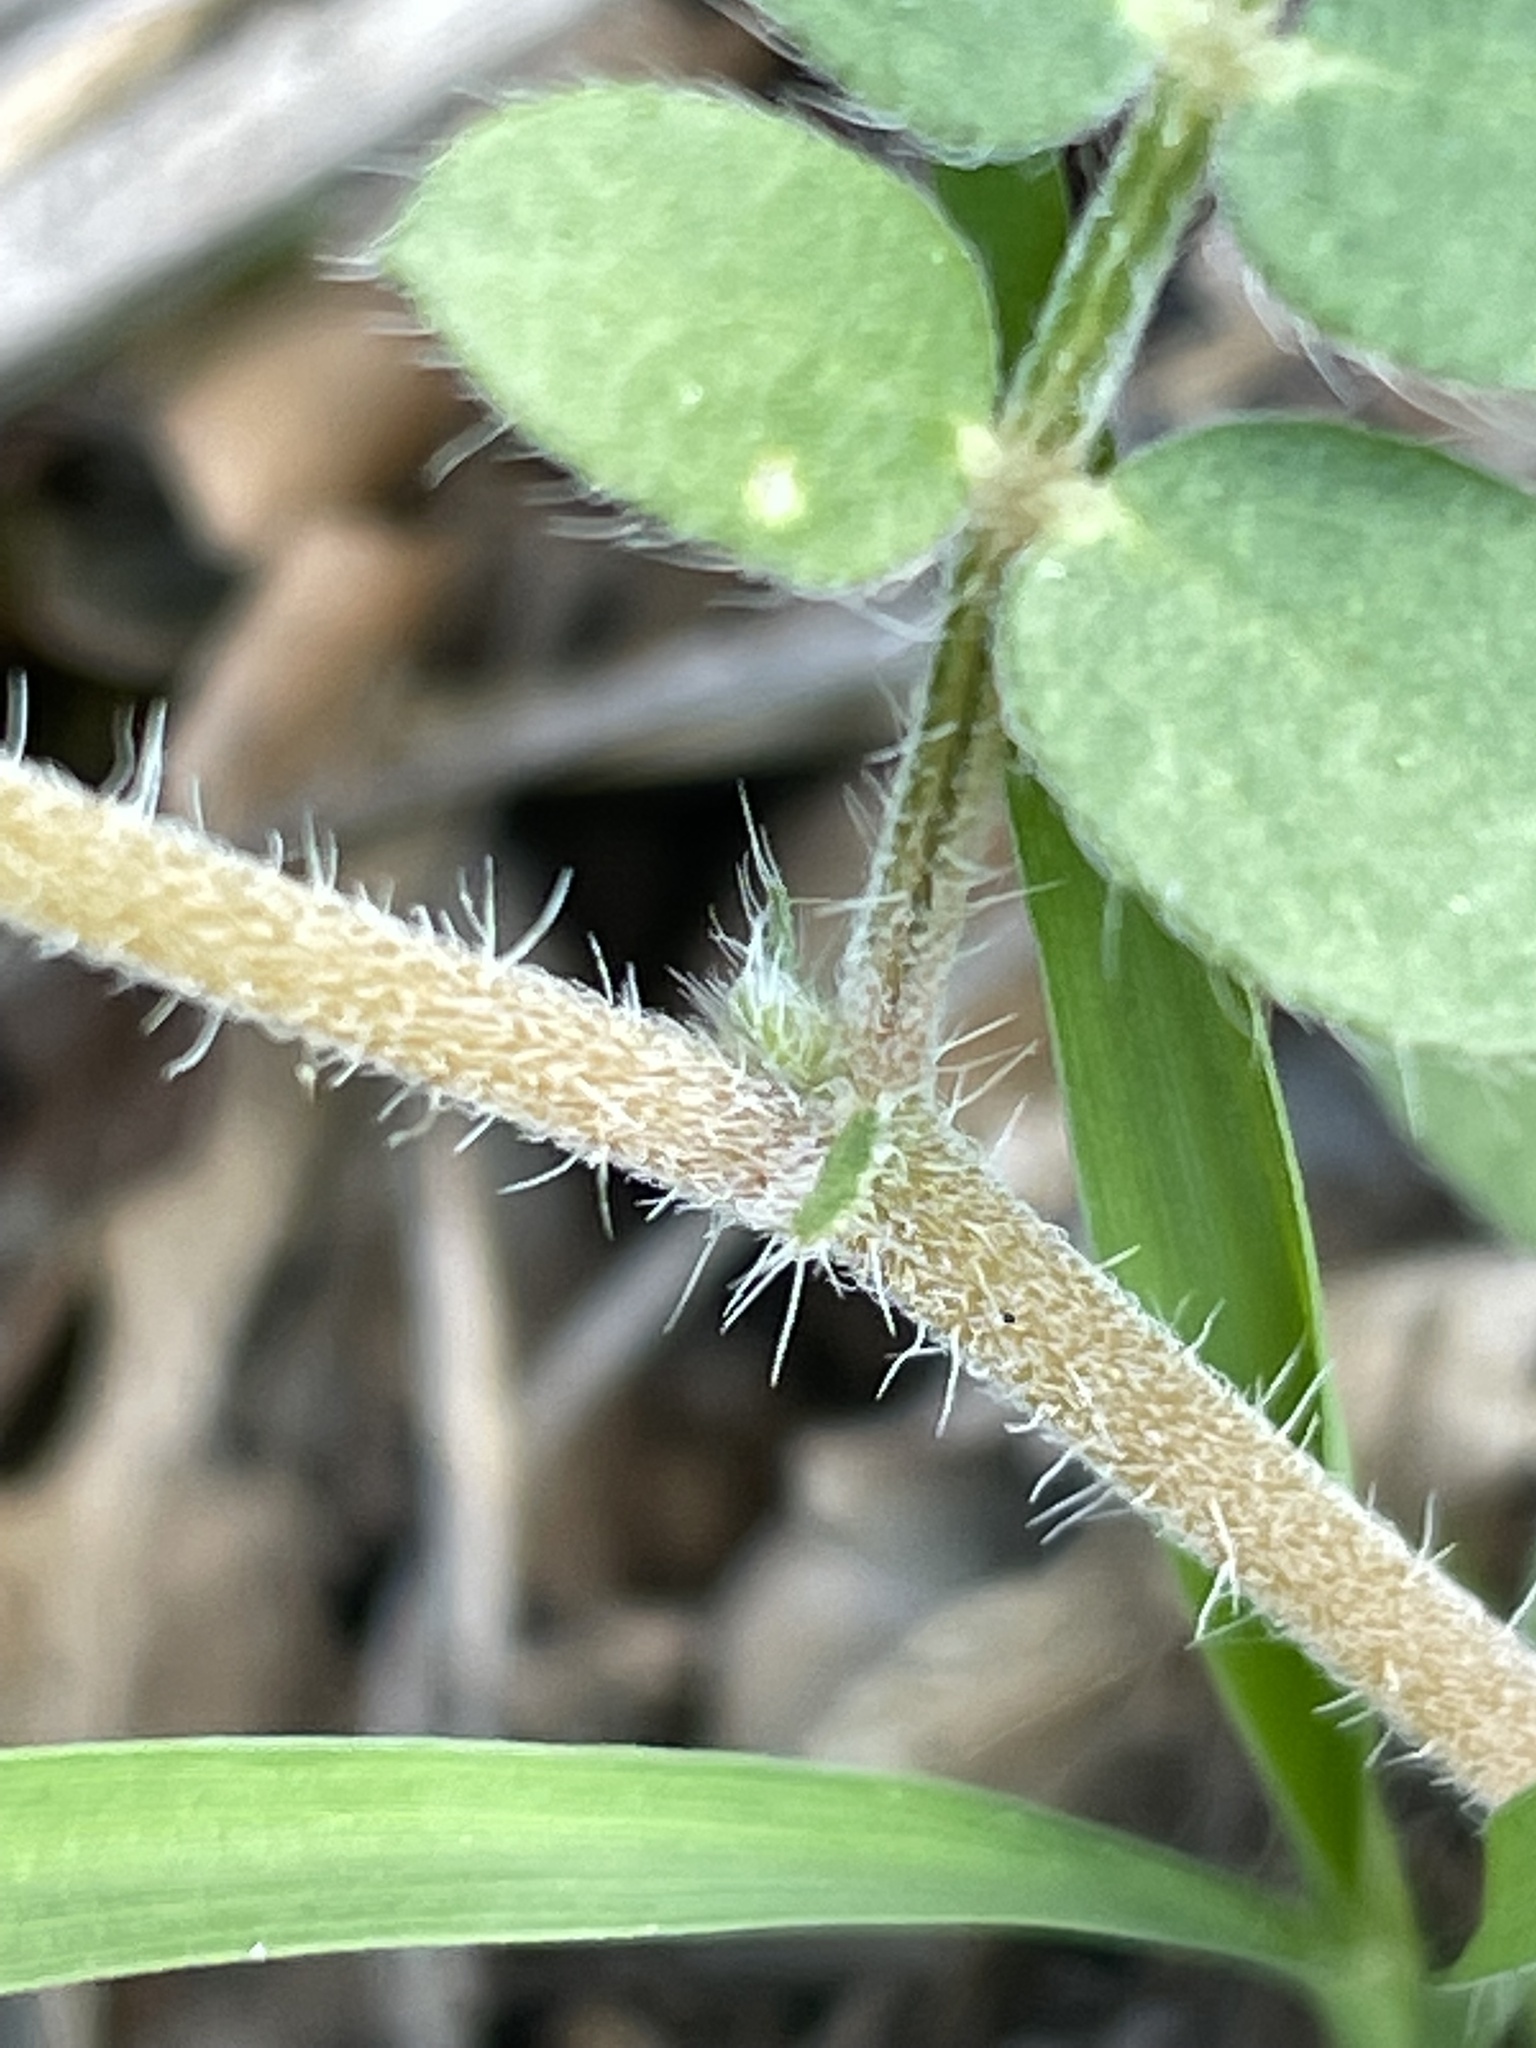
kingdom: Plantae
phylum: Tracheophyta
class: Magnoliopsida
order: Zygophyllales
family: Zygophyllaceae
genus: Kallstroemia
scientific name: Kallstroemia parviflora
